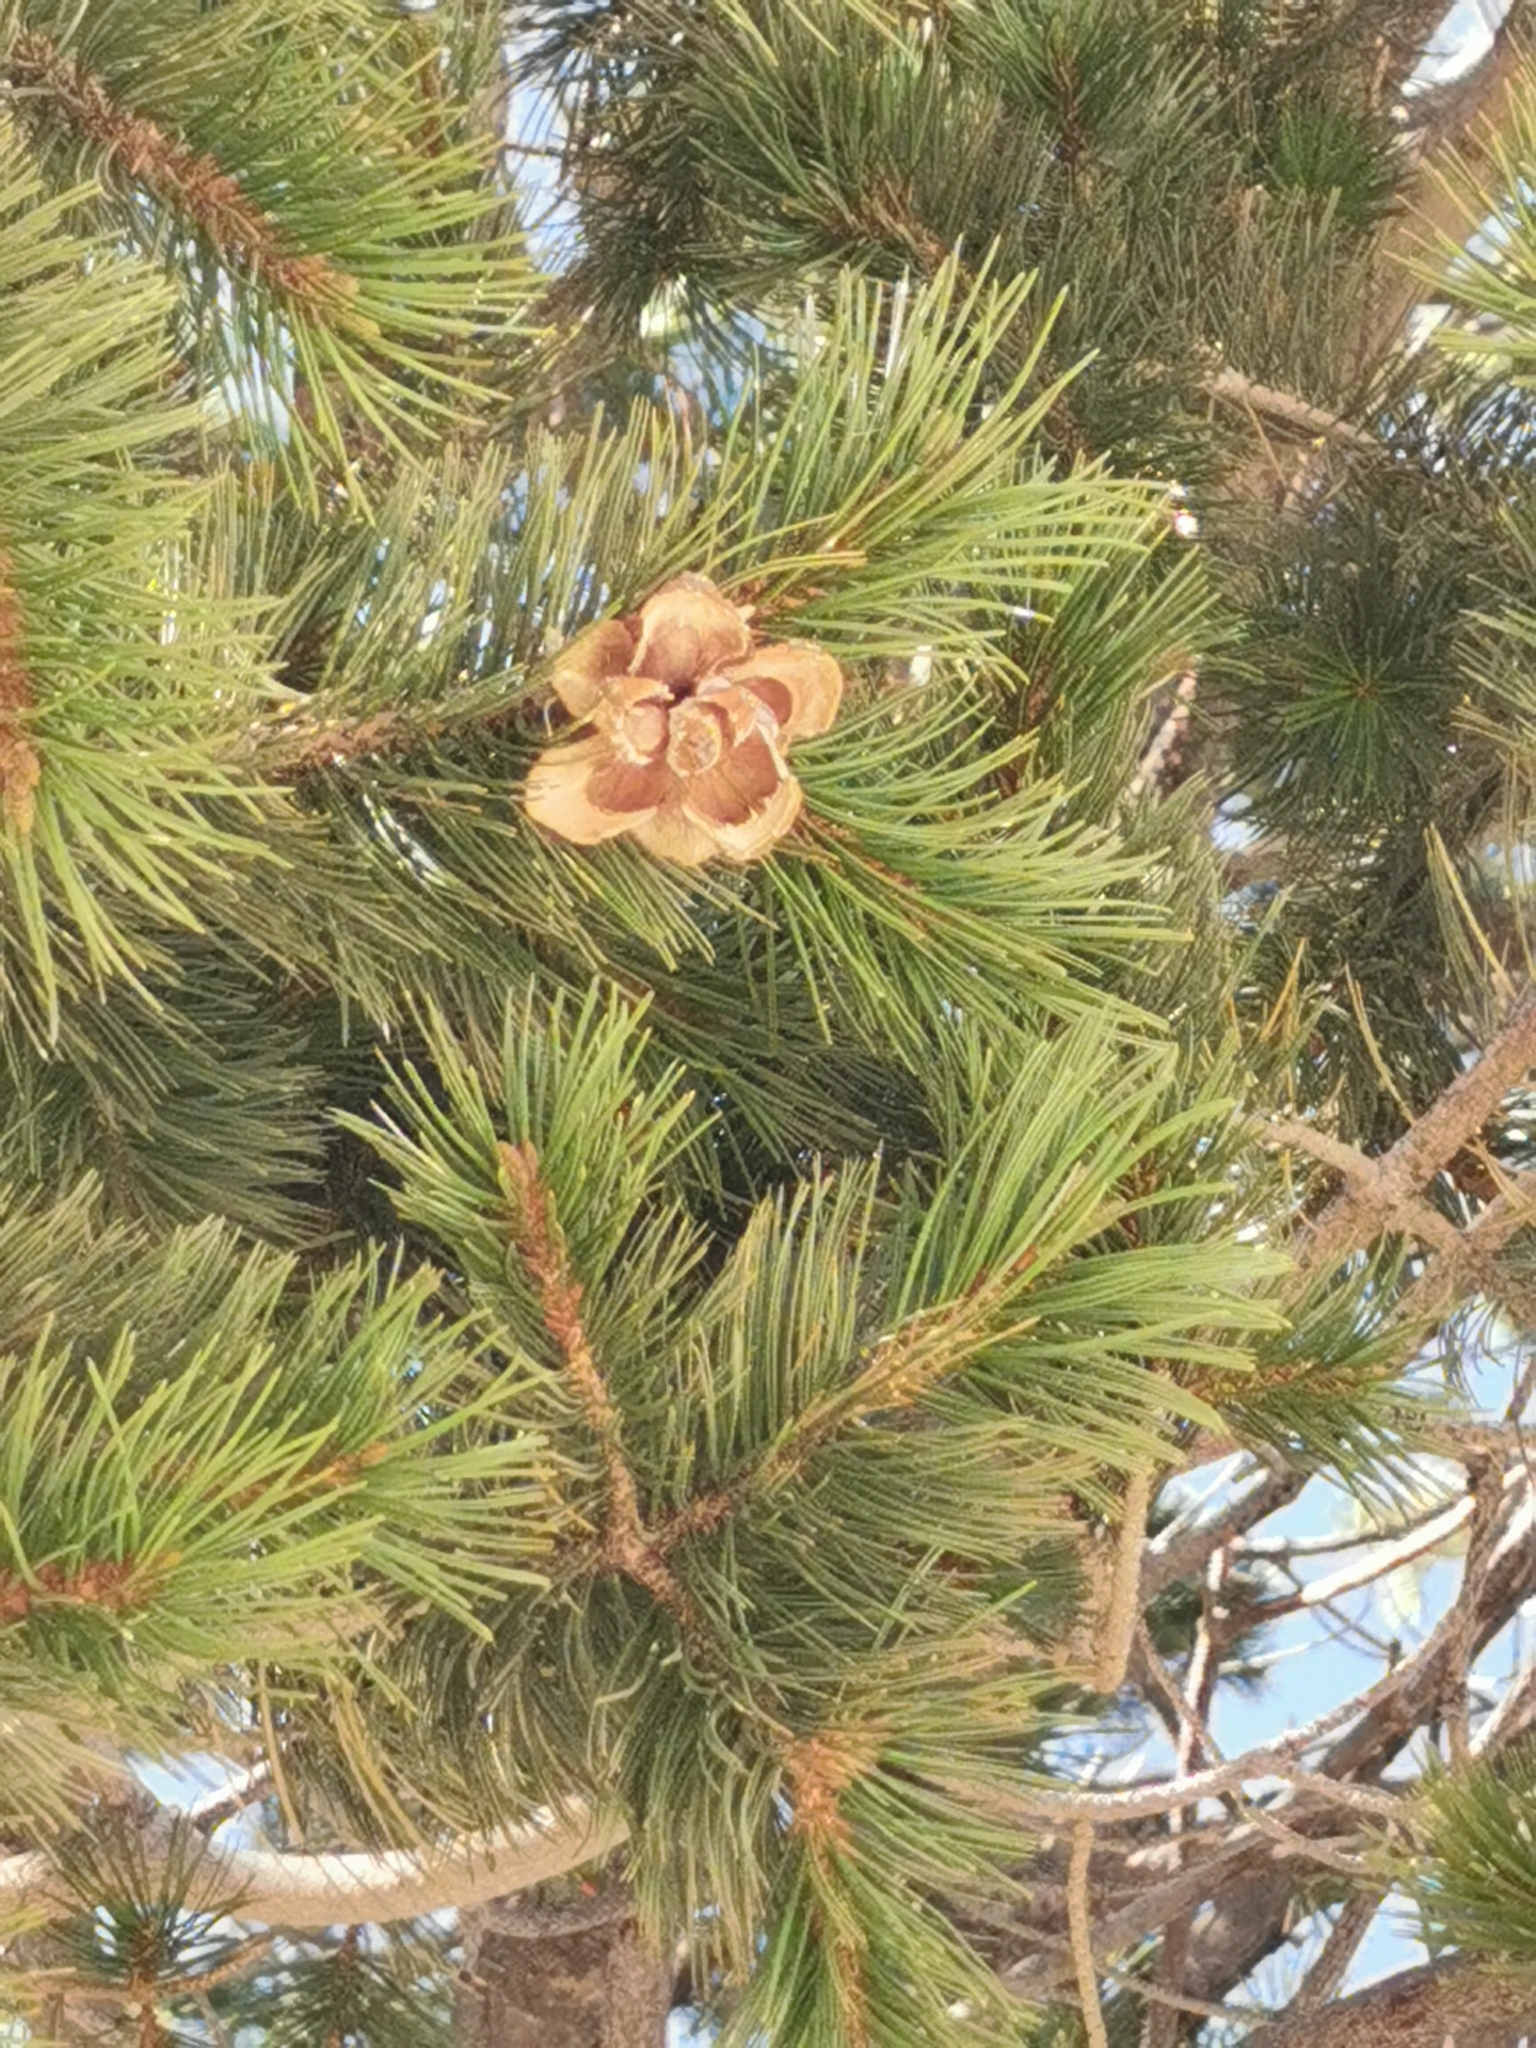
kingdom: Plantae
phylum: Tracheophyta
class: Pinopsida
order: Pinales
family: Pinaceae
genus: Pinus
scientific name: Pinus cembroides
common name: Mexican nut pine
